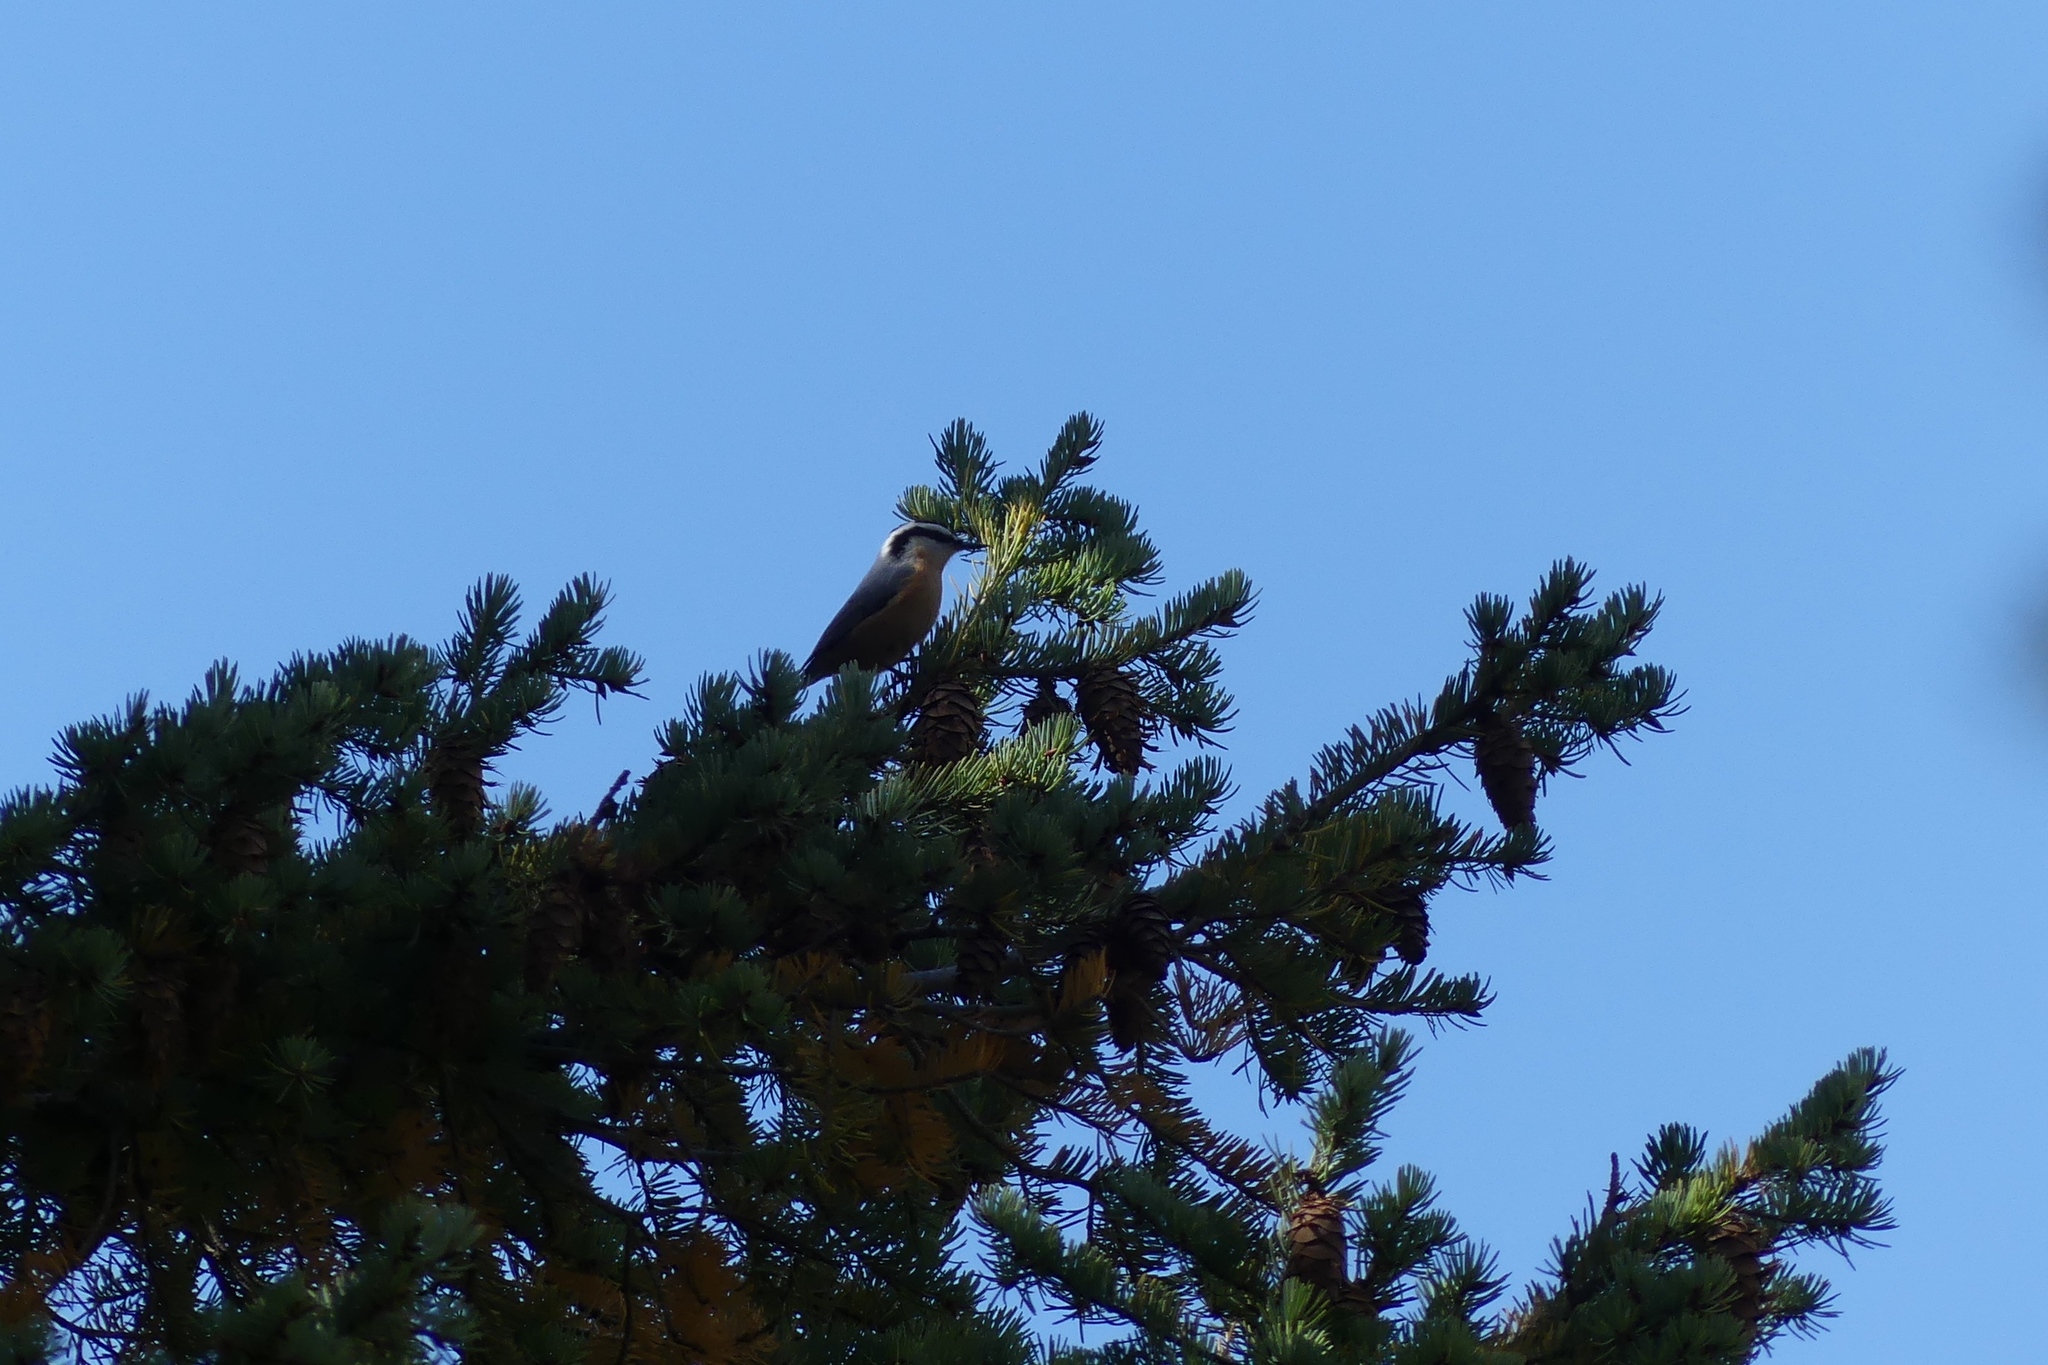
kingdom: Animalia
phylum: Chordata
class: Aves
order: Passeriformes
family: Sittidae
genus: Sitta
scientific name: Sitta canadensis
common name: Red-breasted nuthatch
